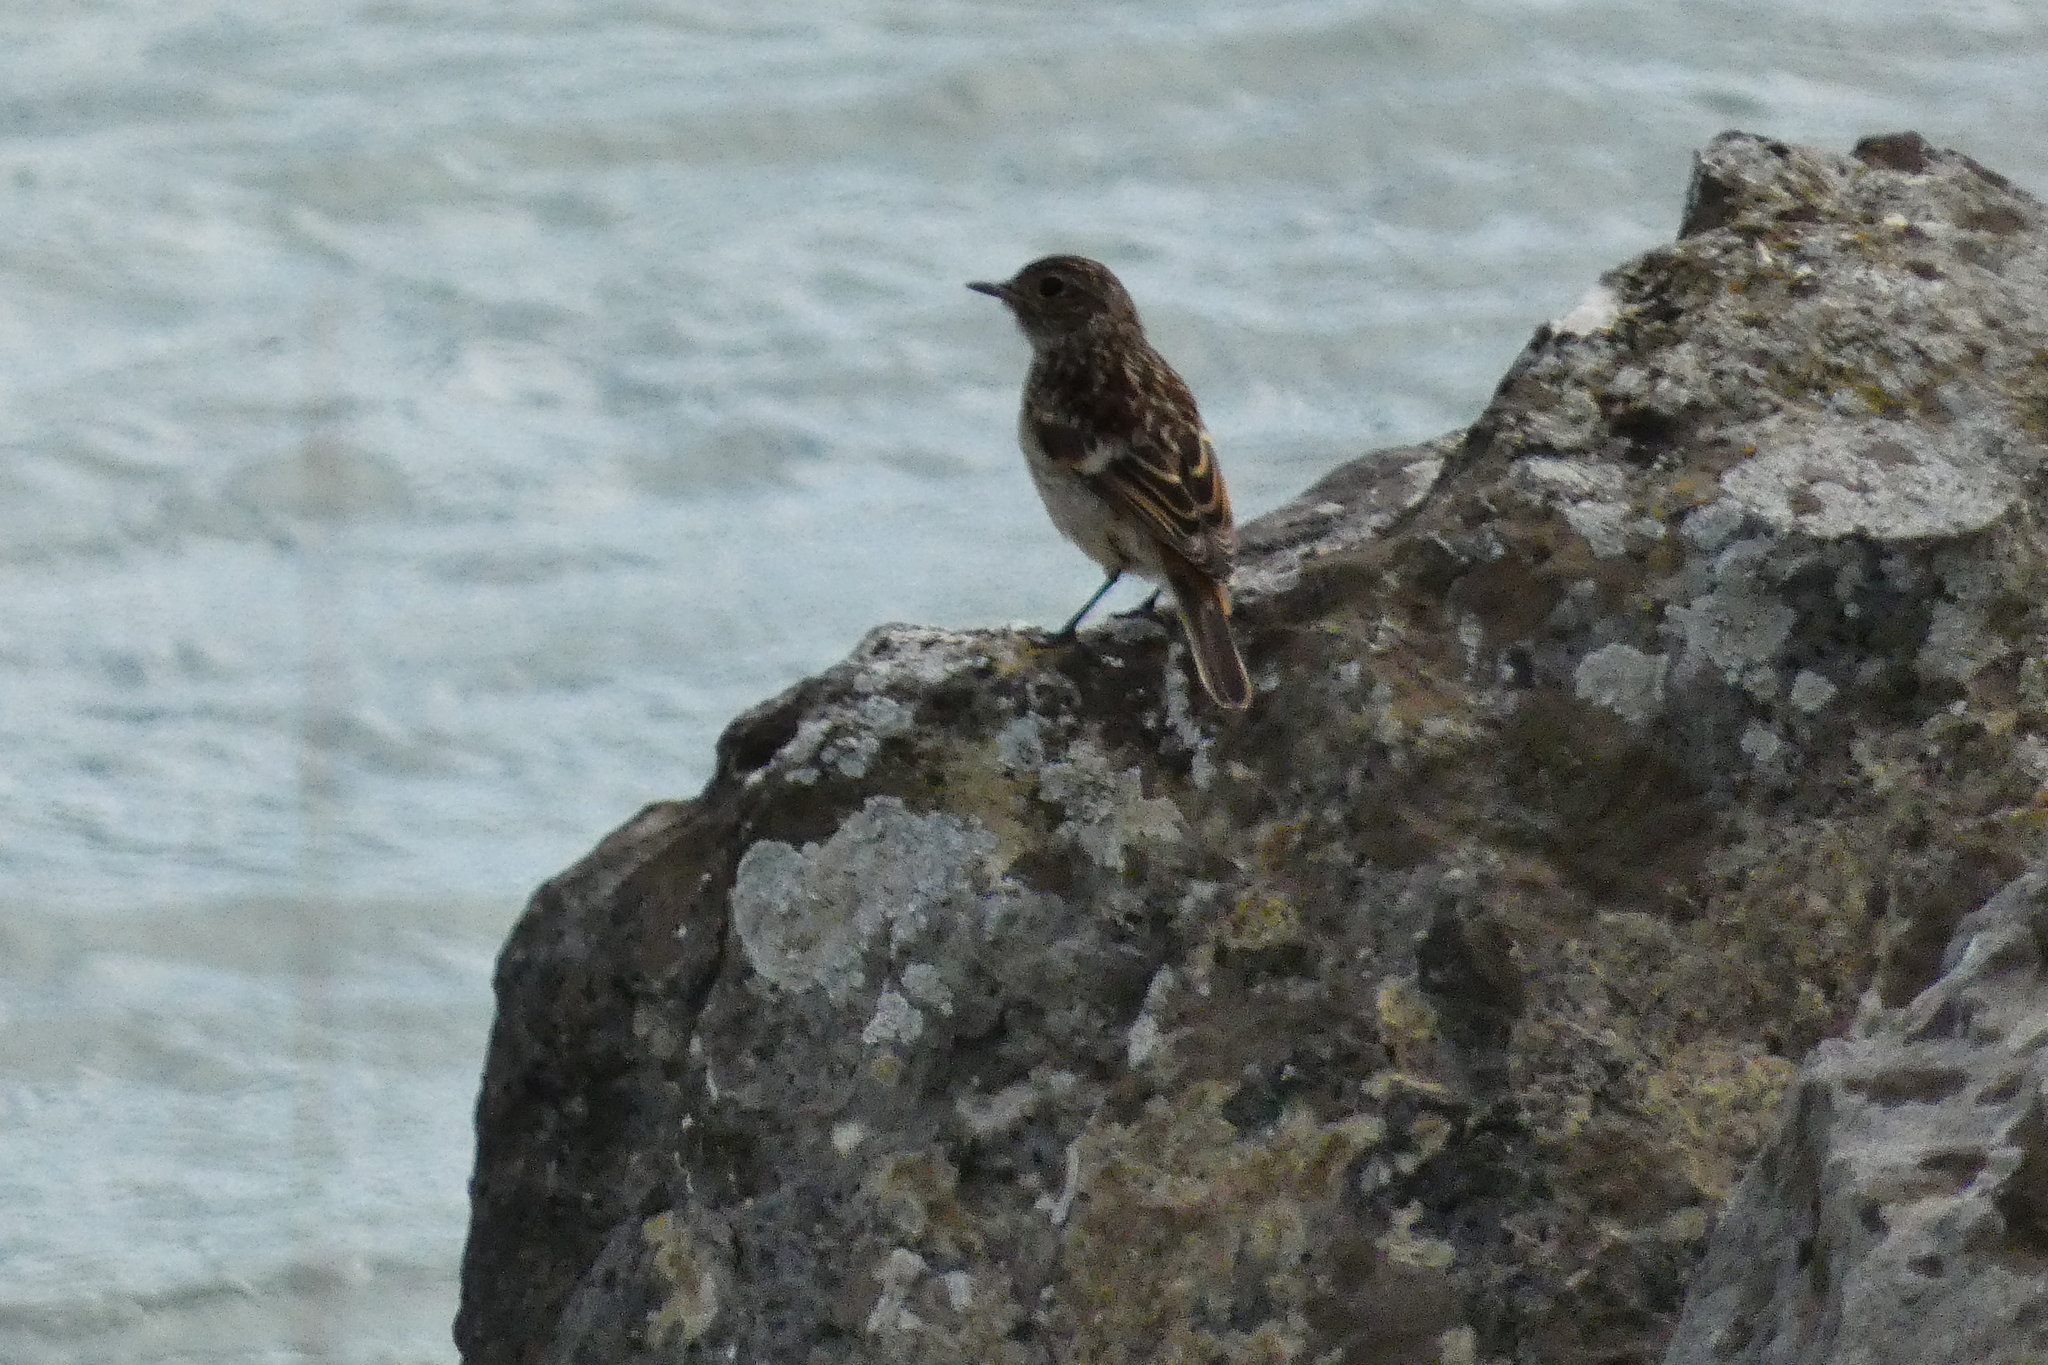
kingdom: Animalia
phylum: Chordata
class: Aves
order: Passeriformes
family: Muscicapidae
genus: Saxicola
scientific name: Saxicola rubicola
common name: European stonechat
